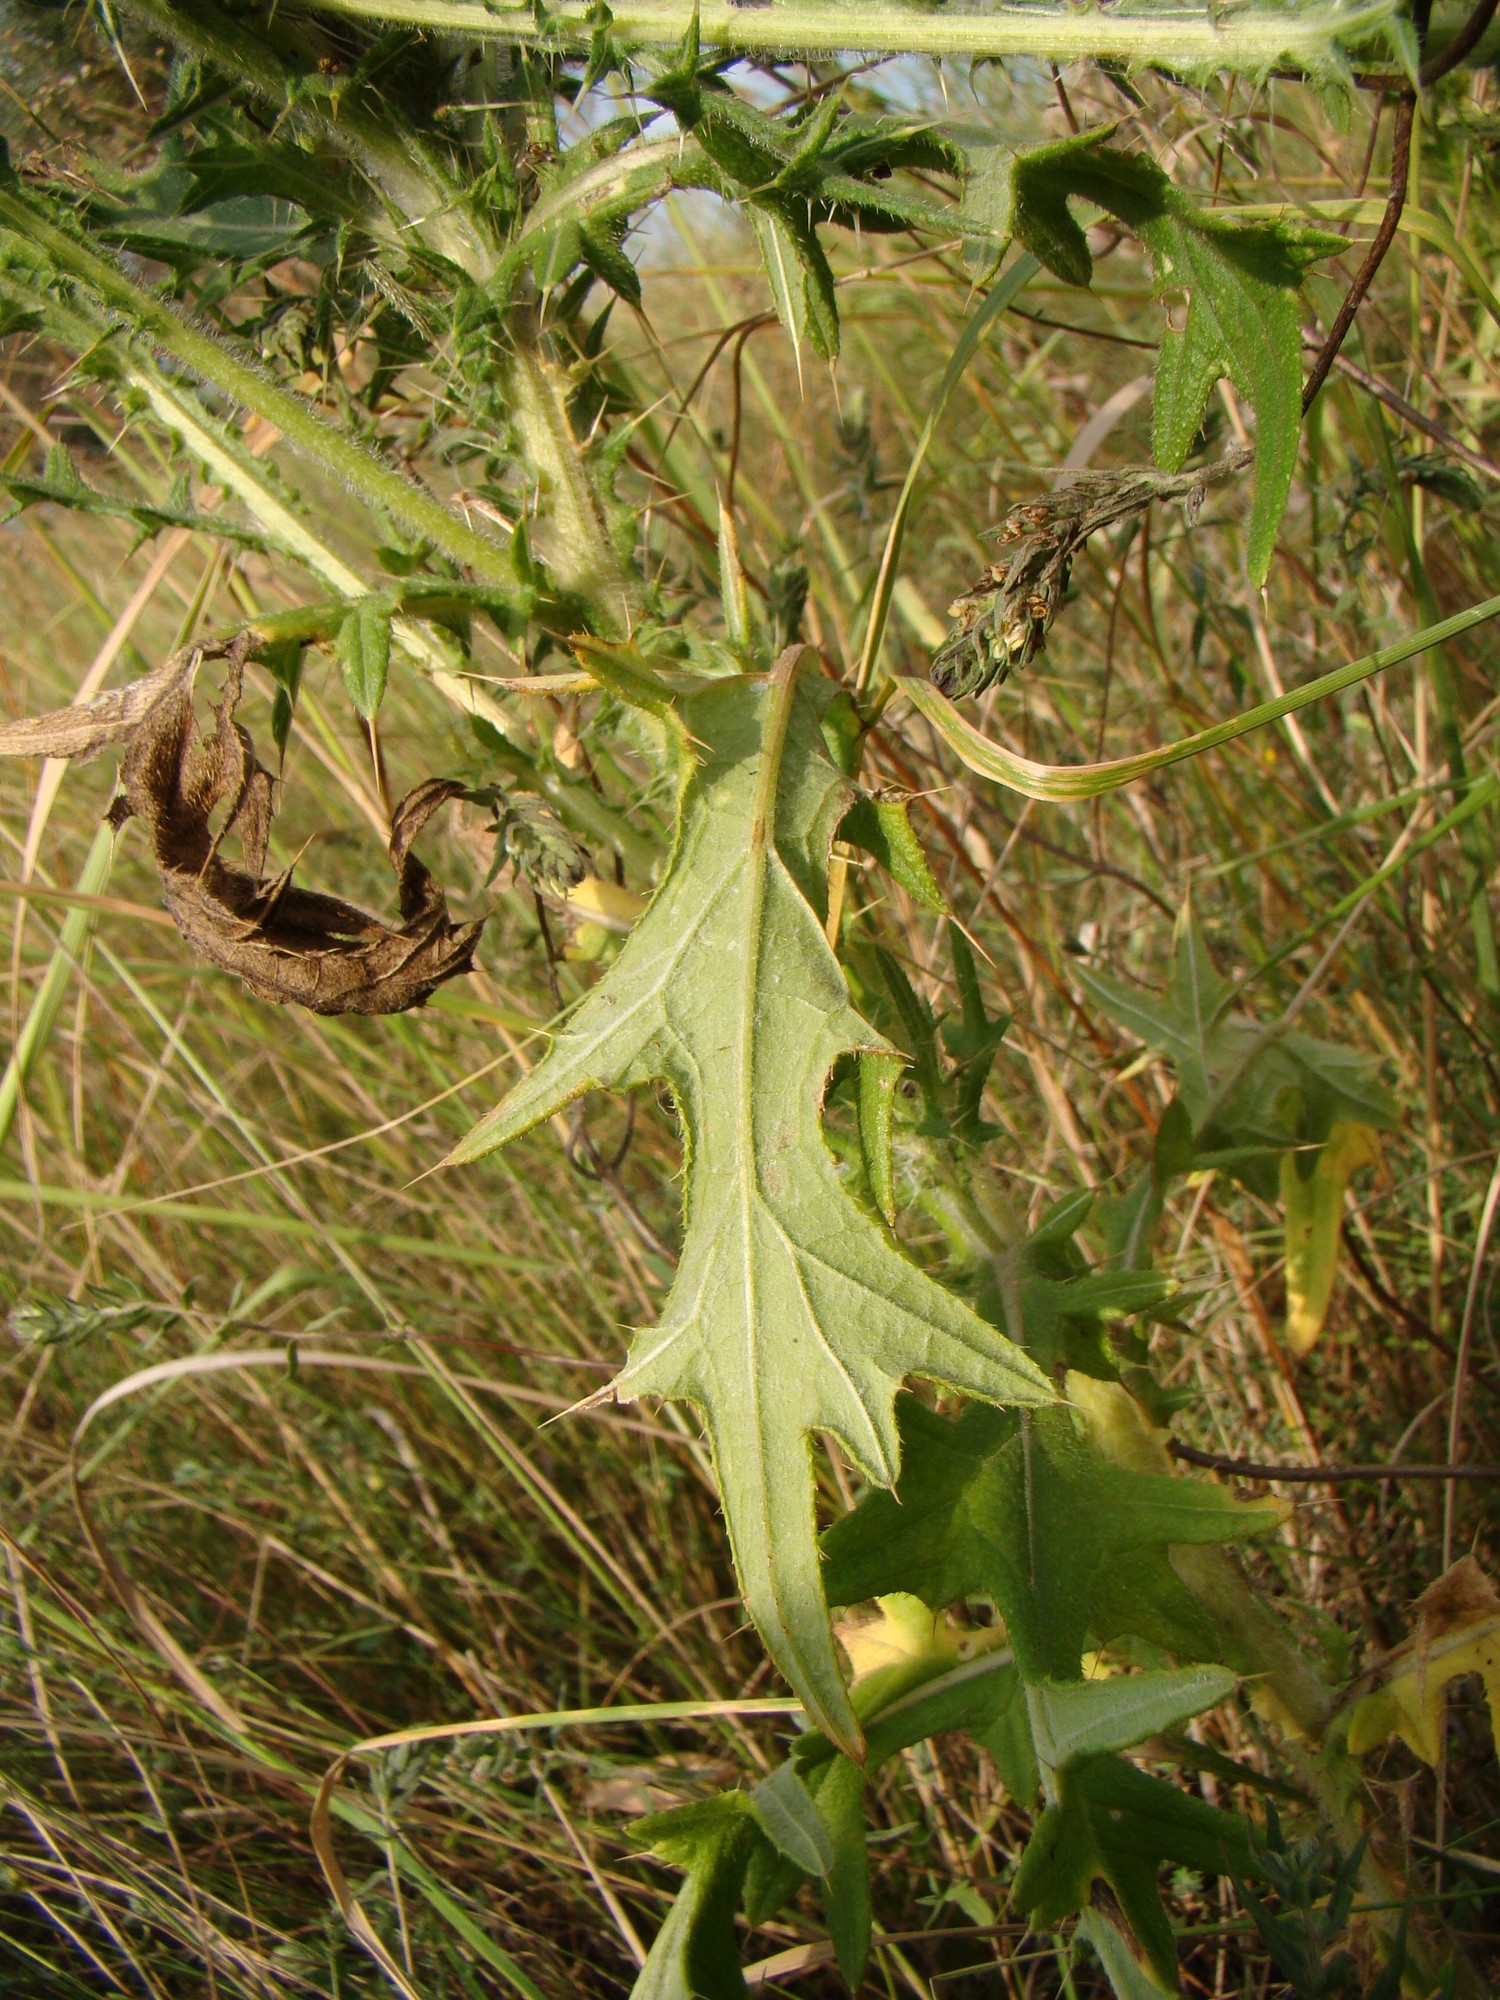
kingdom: Plantae
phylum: Tracheophyta
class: Magnoliopsida
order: Asterales
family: Asteraceae
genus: Cirsium
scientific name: Cirsium vulgare
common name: Bull thistle
